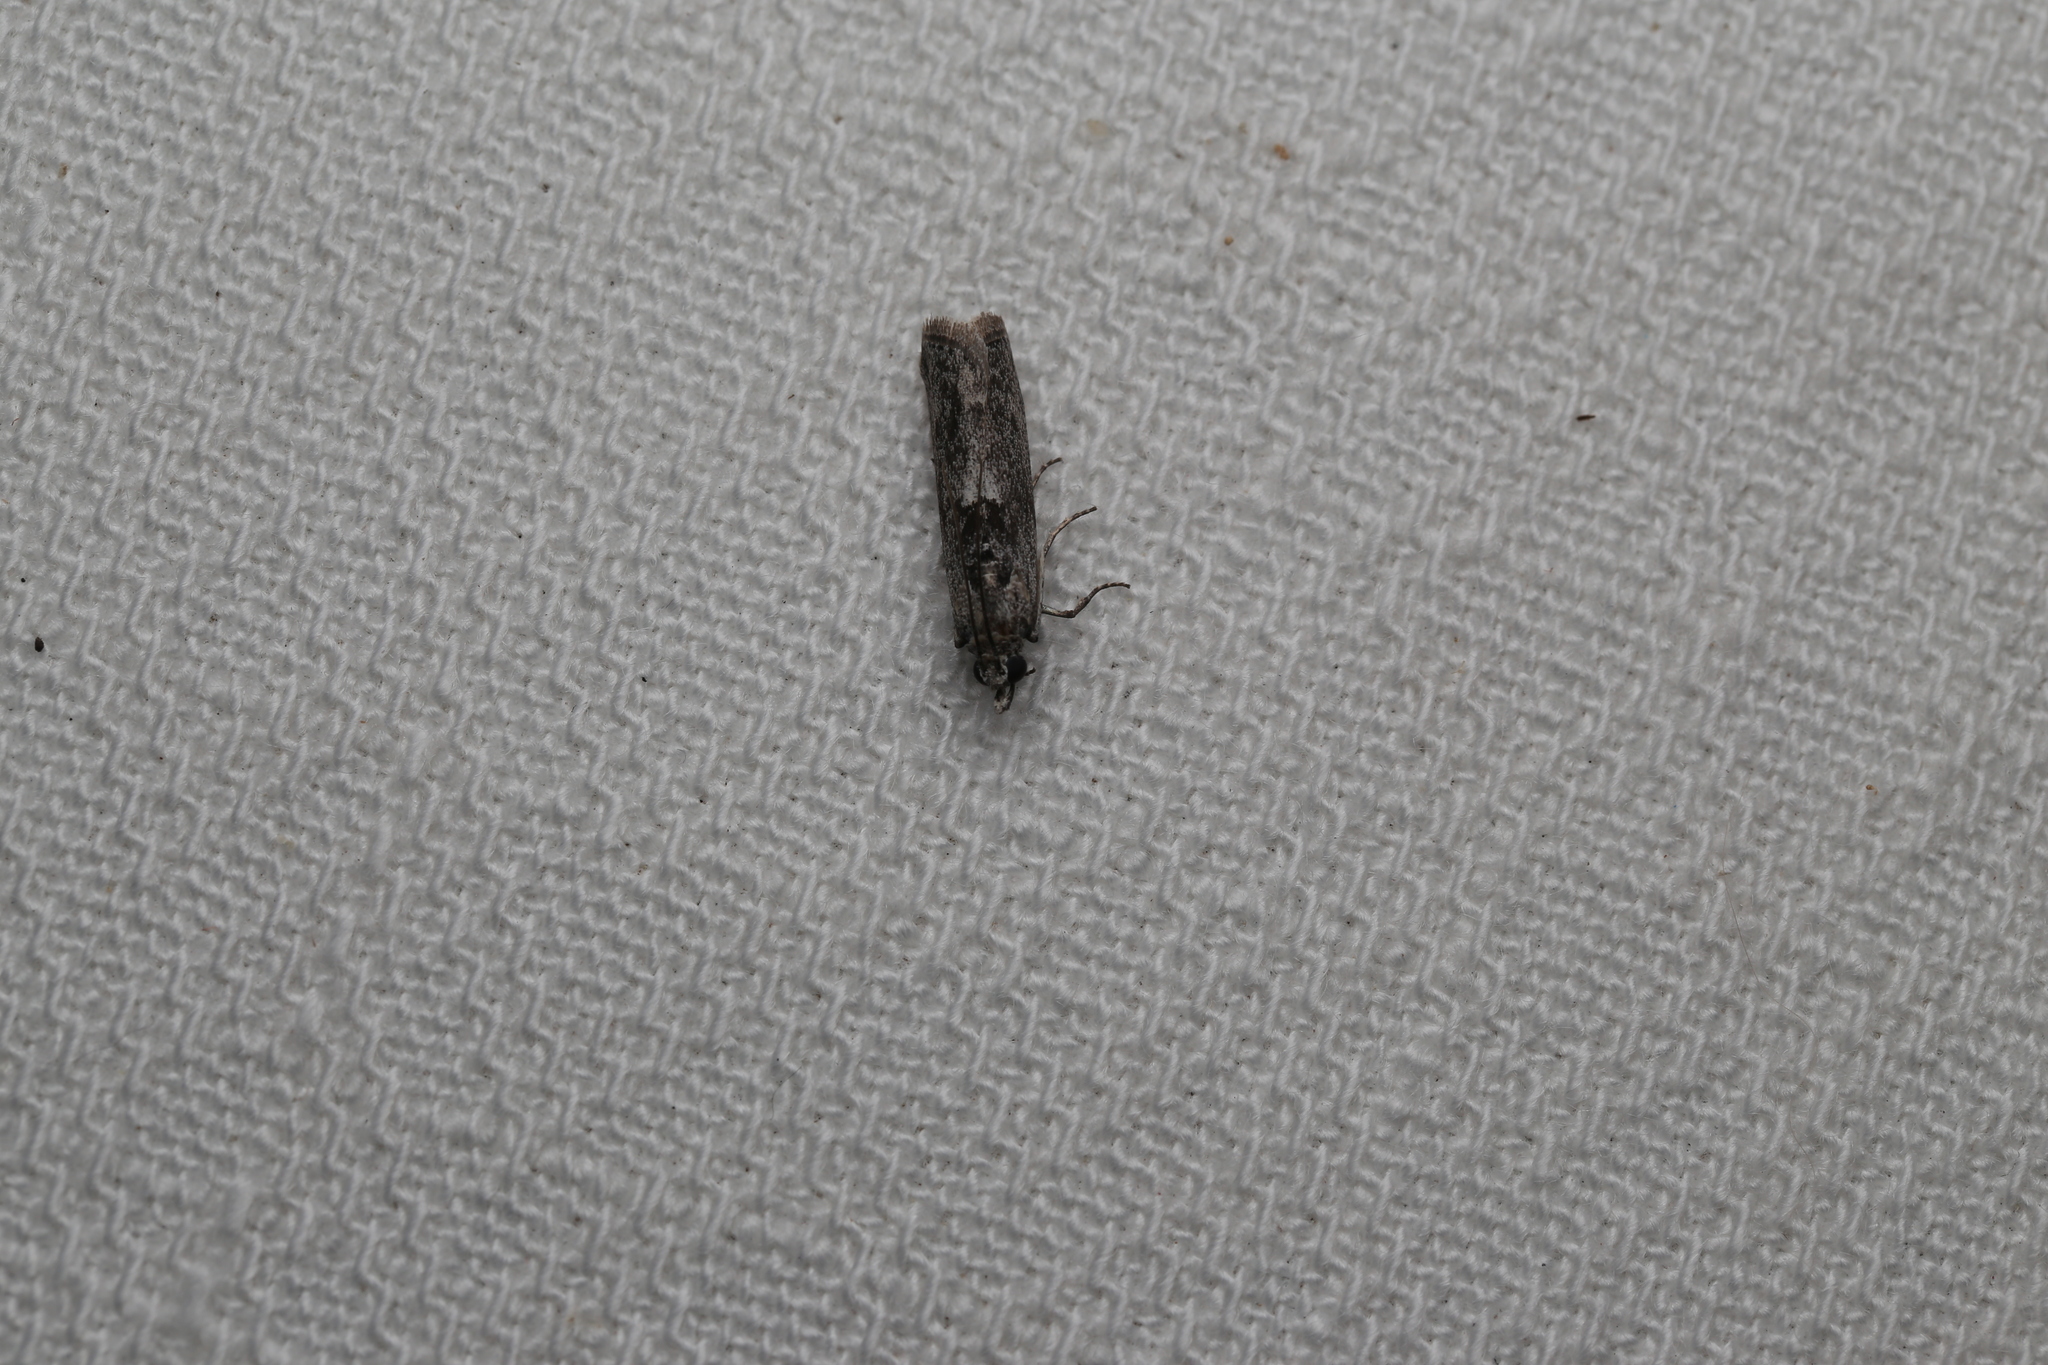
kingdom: Animalia
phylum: Arthropoda
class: Insecta
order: Lepidoptera
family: Pyralidae
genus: Sciota
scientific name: Sciota
